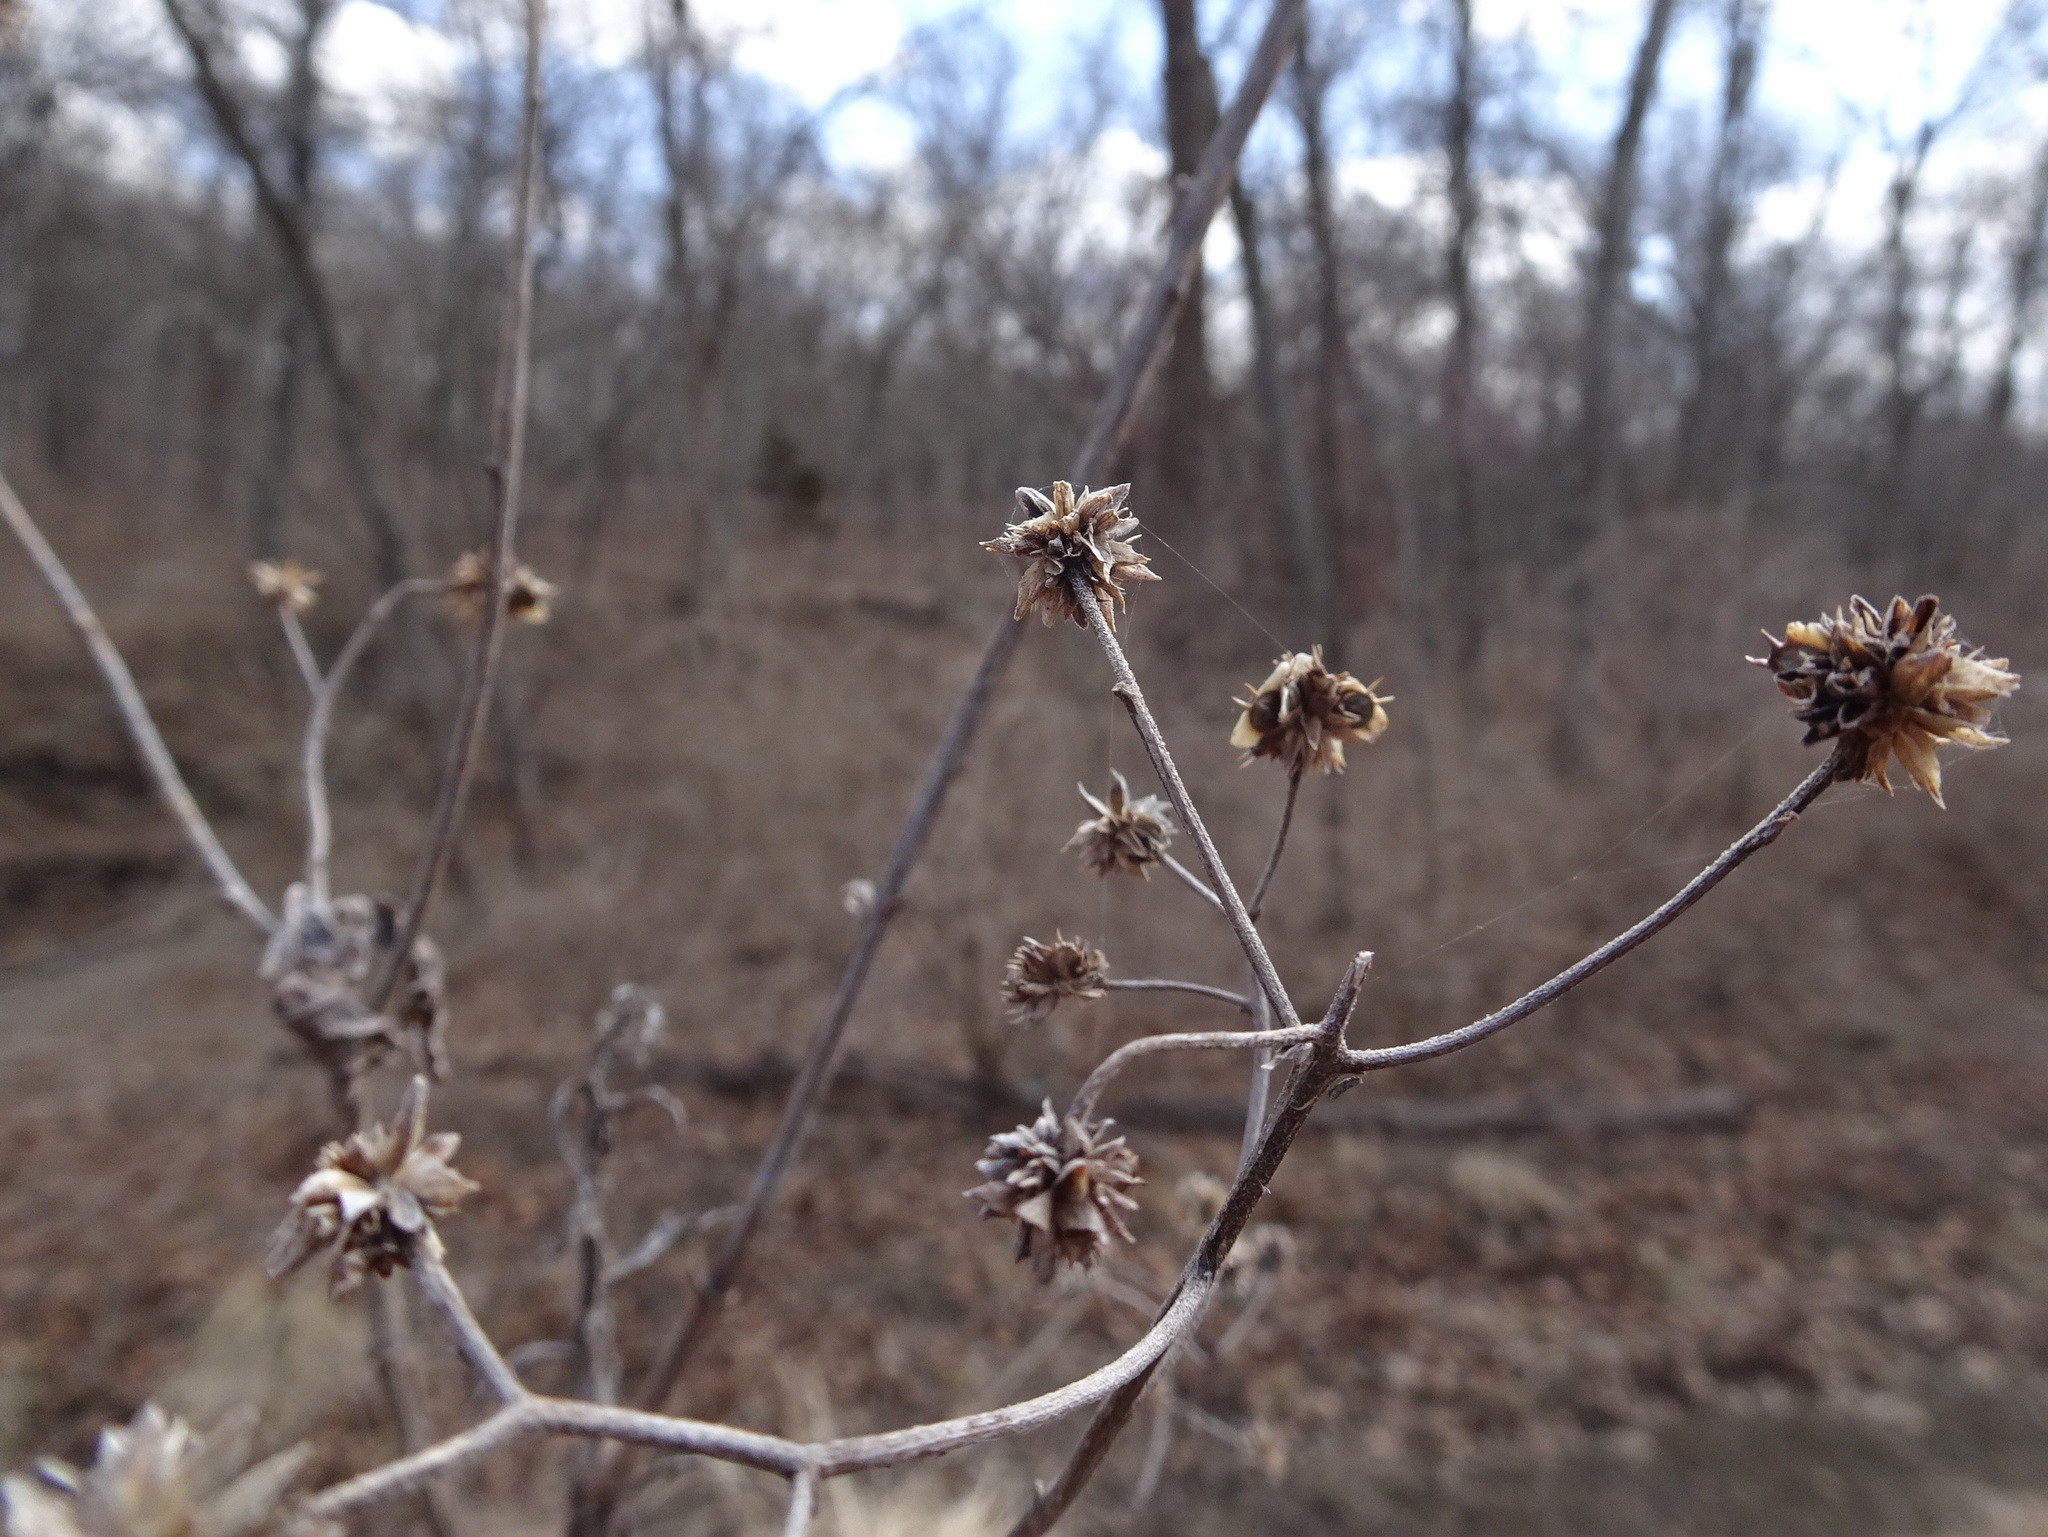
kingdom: Plantae
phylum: Tracheophyta
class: Magnoliopsida
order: Asterales
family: Asteraceae
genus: Verbesina
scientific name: Verbesina alternifolia
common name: Wingstem
